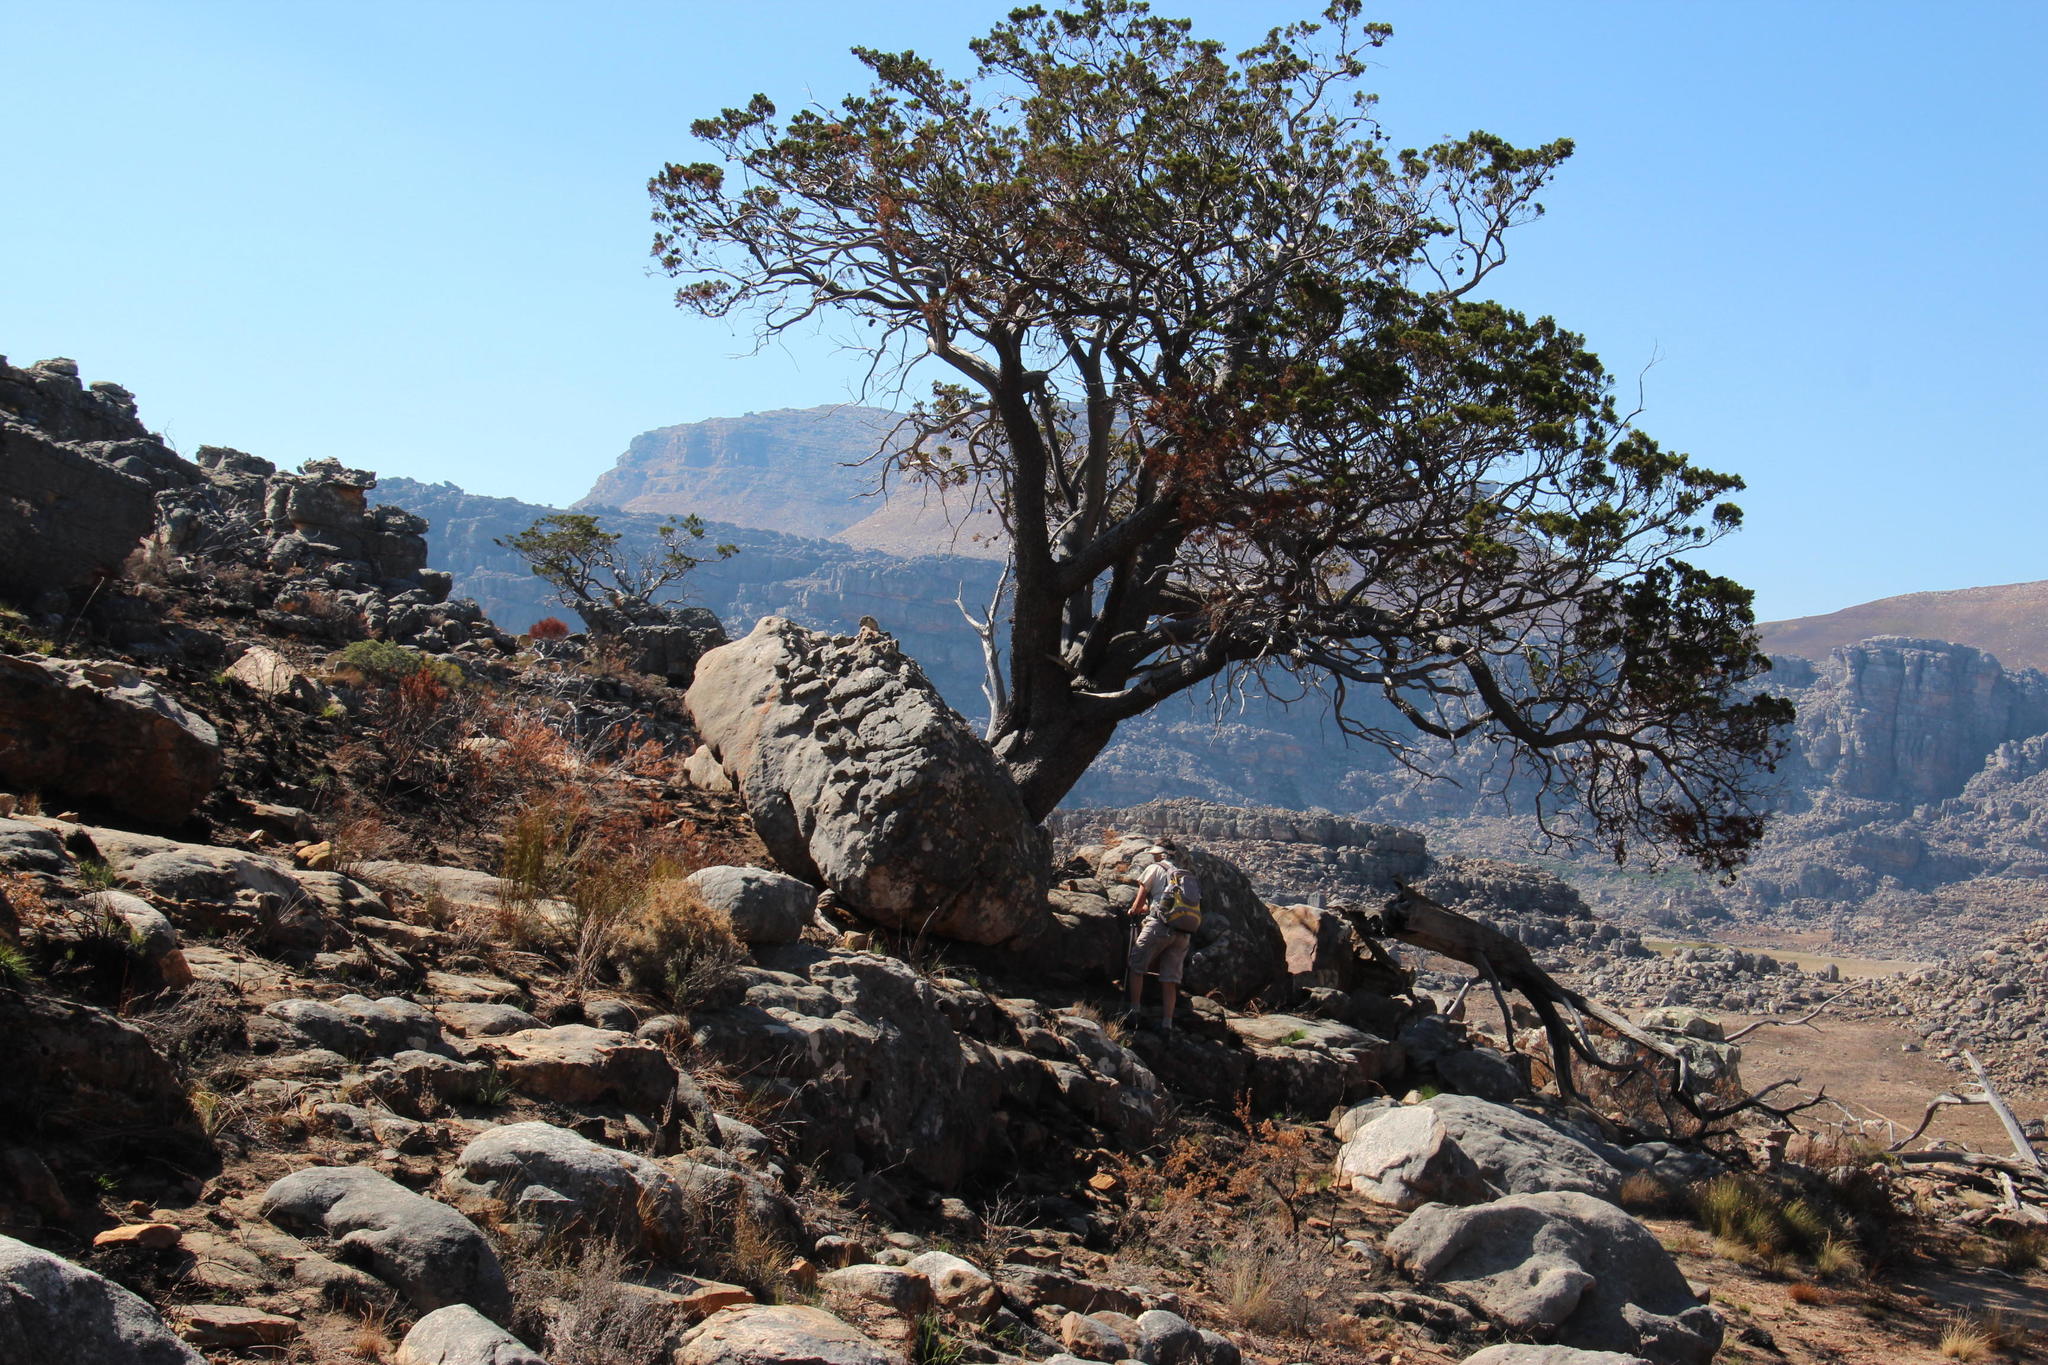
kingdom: Plantae
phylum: Tracheophyta
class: Pinopsida
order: Pinales
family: Cupressaceae
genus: Widdringtonia
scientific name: Widdringtonia nodiflora
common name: Cape cypress
